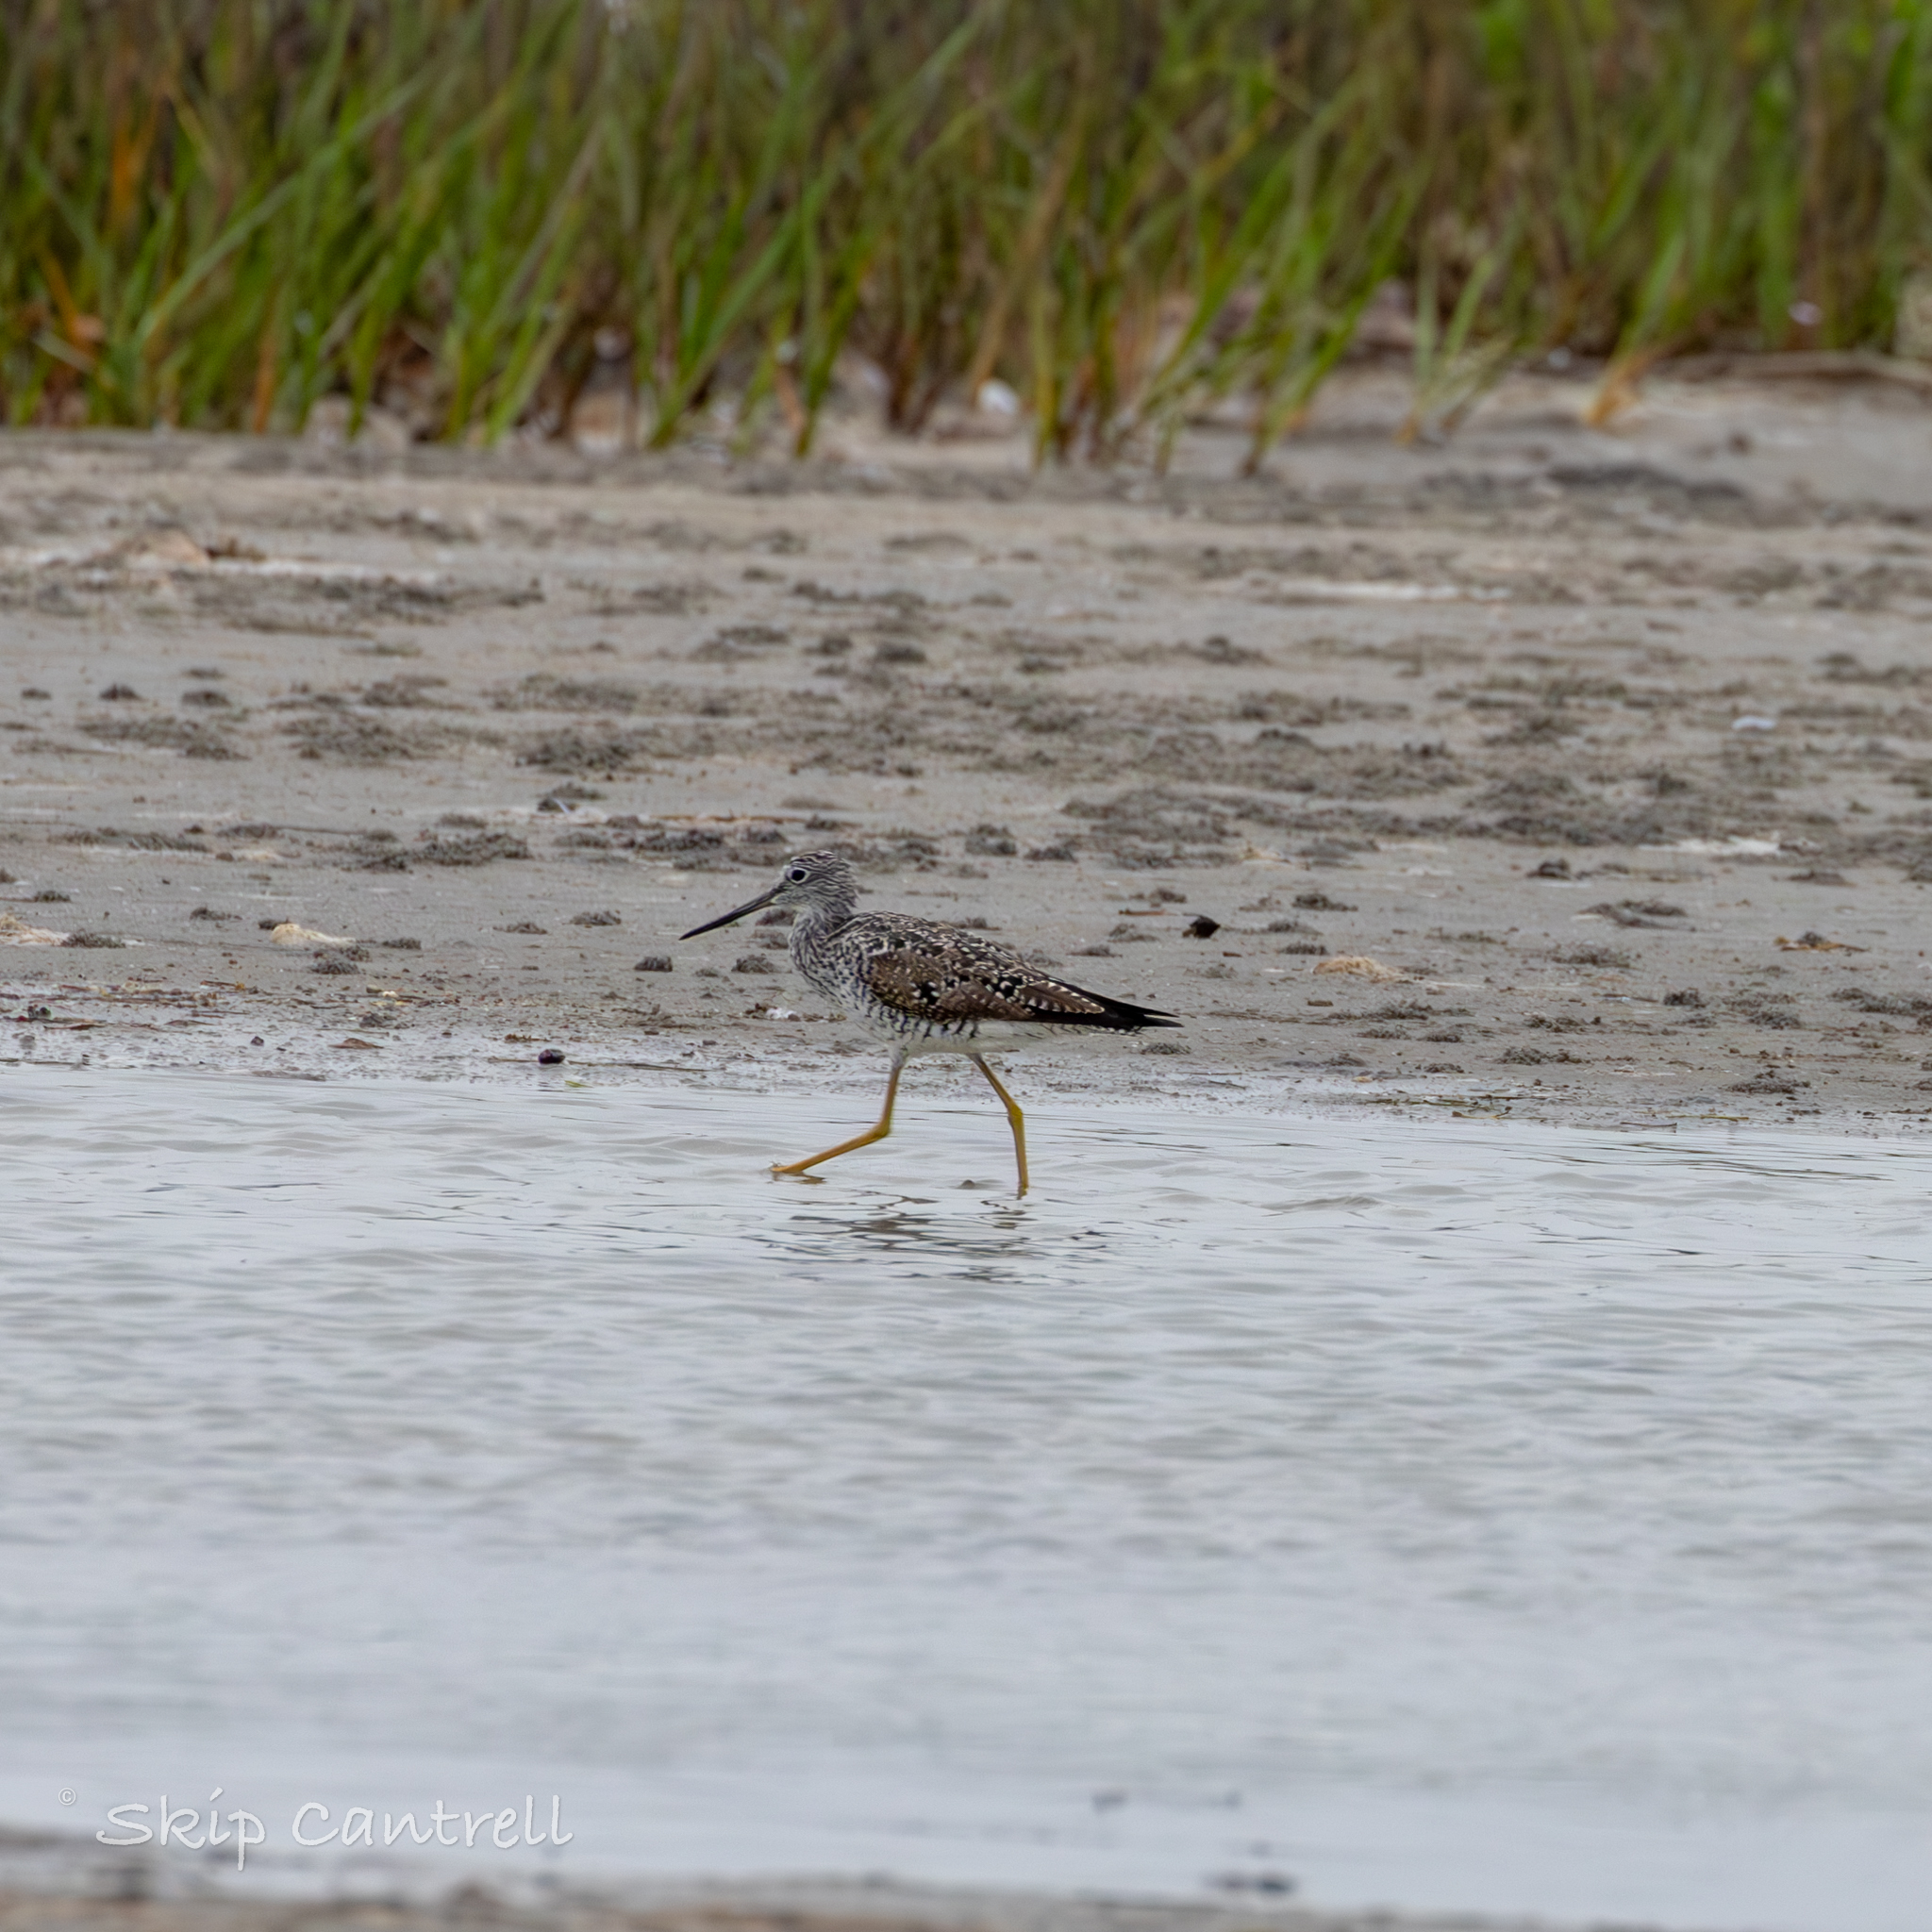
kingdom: Animalia
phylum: Chordata
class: Aves
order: Charadriiformes
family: Scolopacidae
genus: Tringa
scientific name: Tringa melanoleuca
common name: Greater yellowlegs
